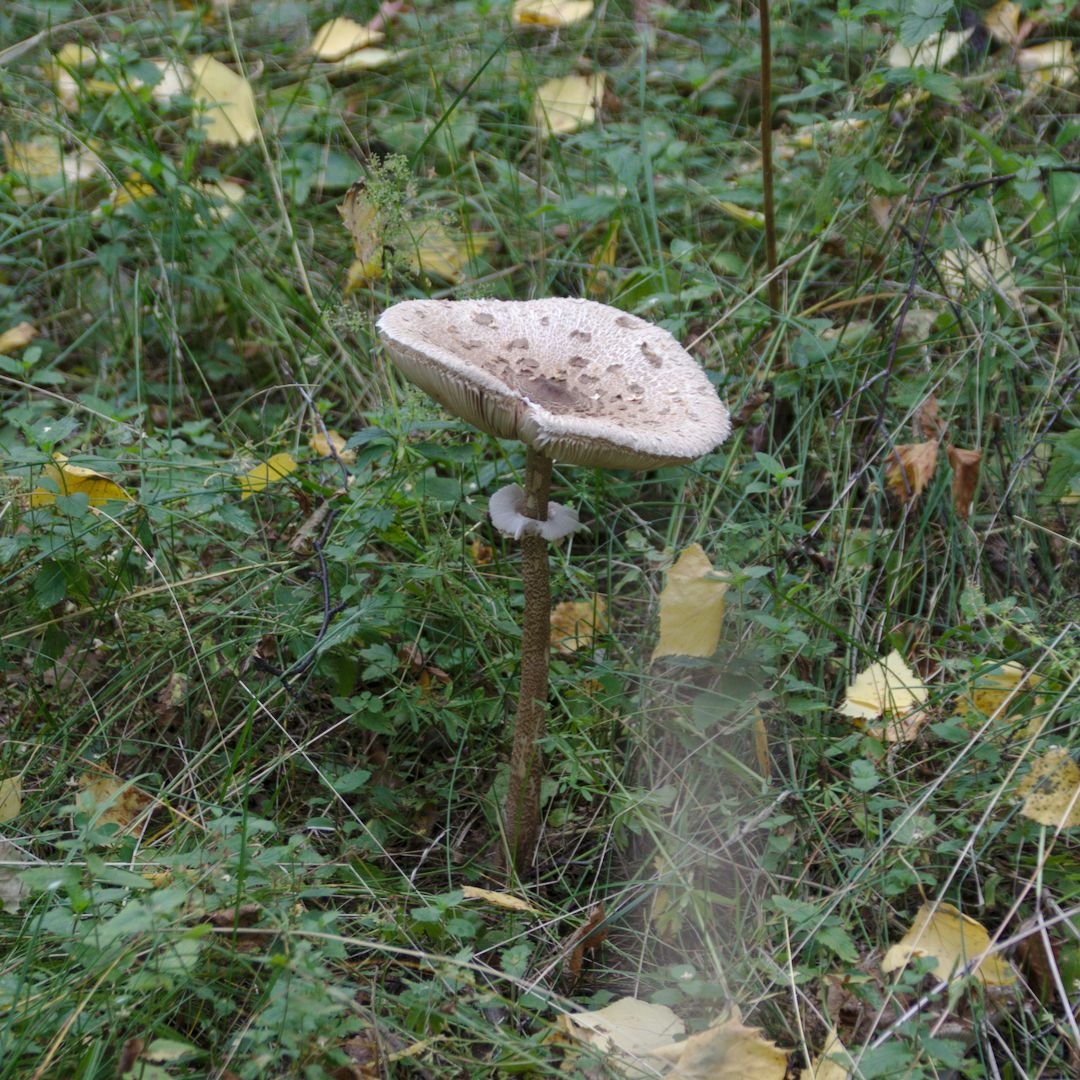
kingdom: Fungi
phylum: Basidiomycota
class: Agaricomycetes
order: Agaricales
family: Agaricaceae
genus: Macrolepiota
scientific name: Macrolepiota procera
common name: Parasol
